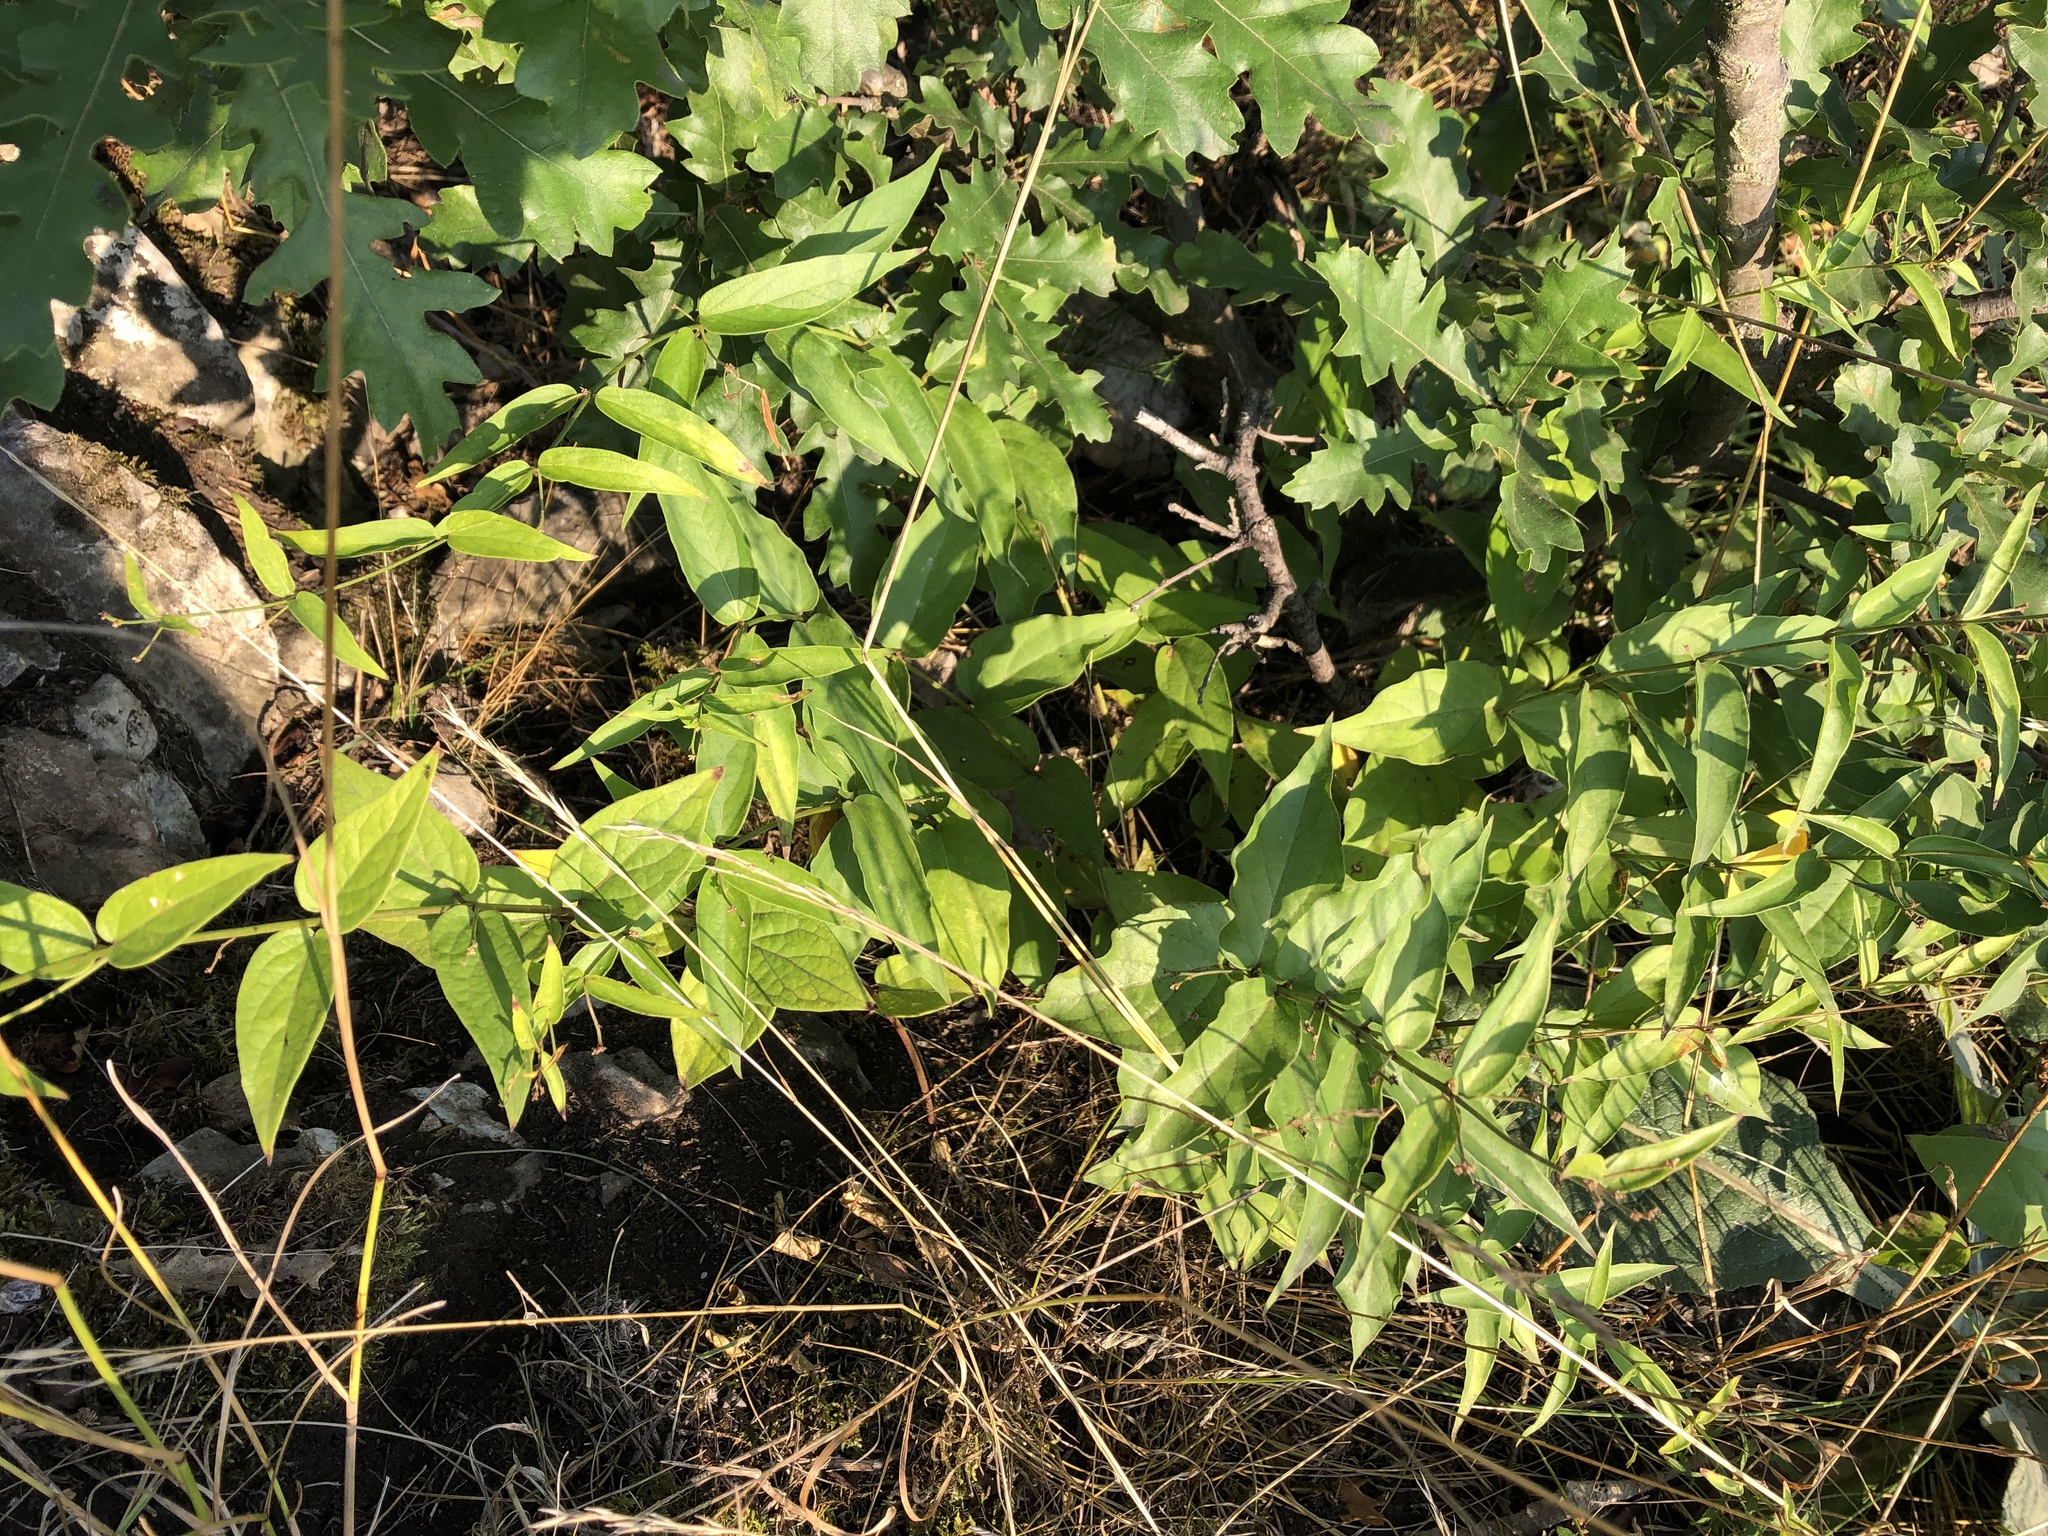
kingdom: Plantae
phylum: Tracheophyta
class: Magnoliopsida
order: Gentianales
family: Apocynaceae
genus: Vincetoxicum
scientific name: Vincetoxicum hirundinaria
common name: White swallowwort
